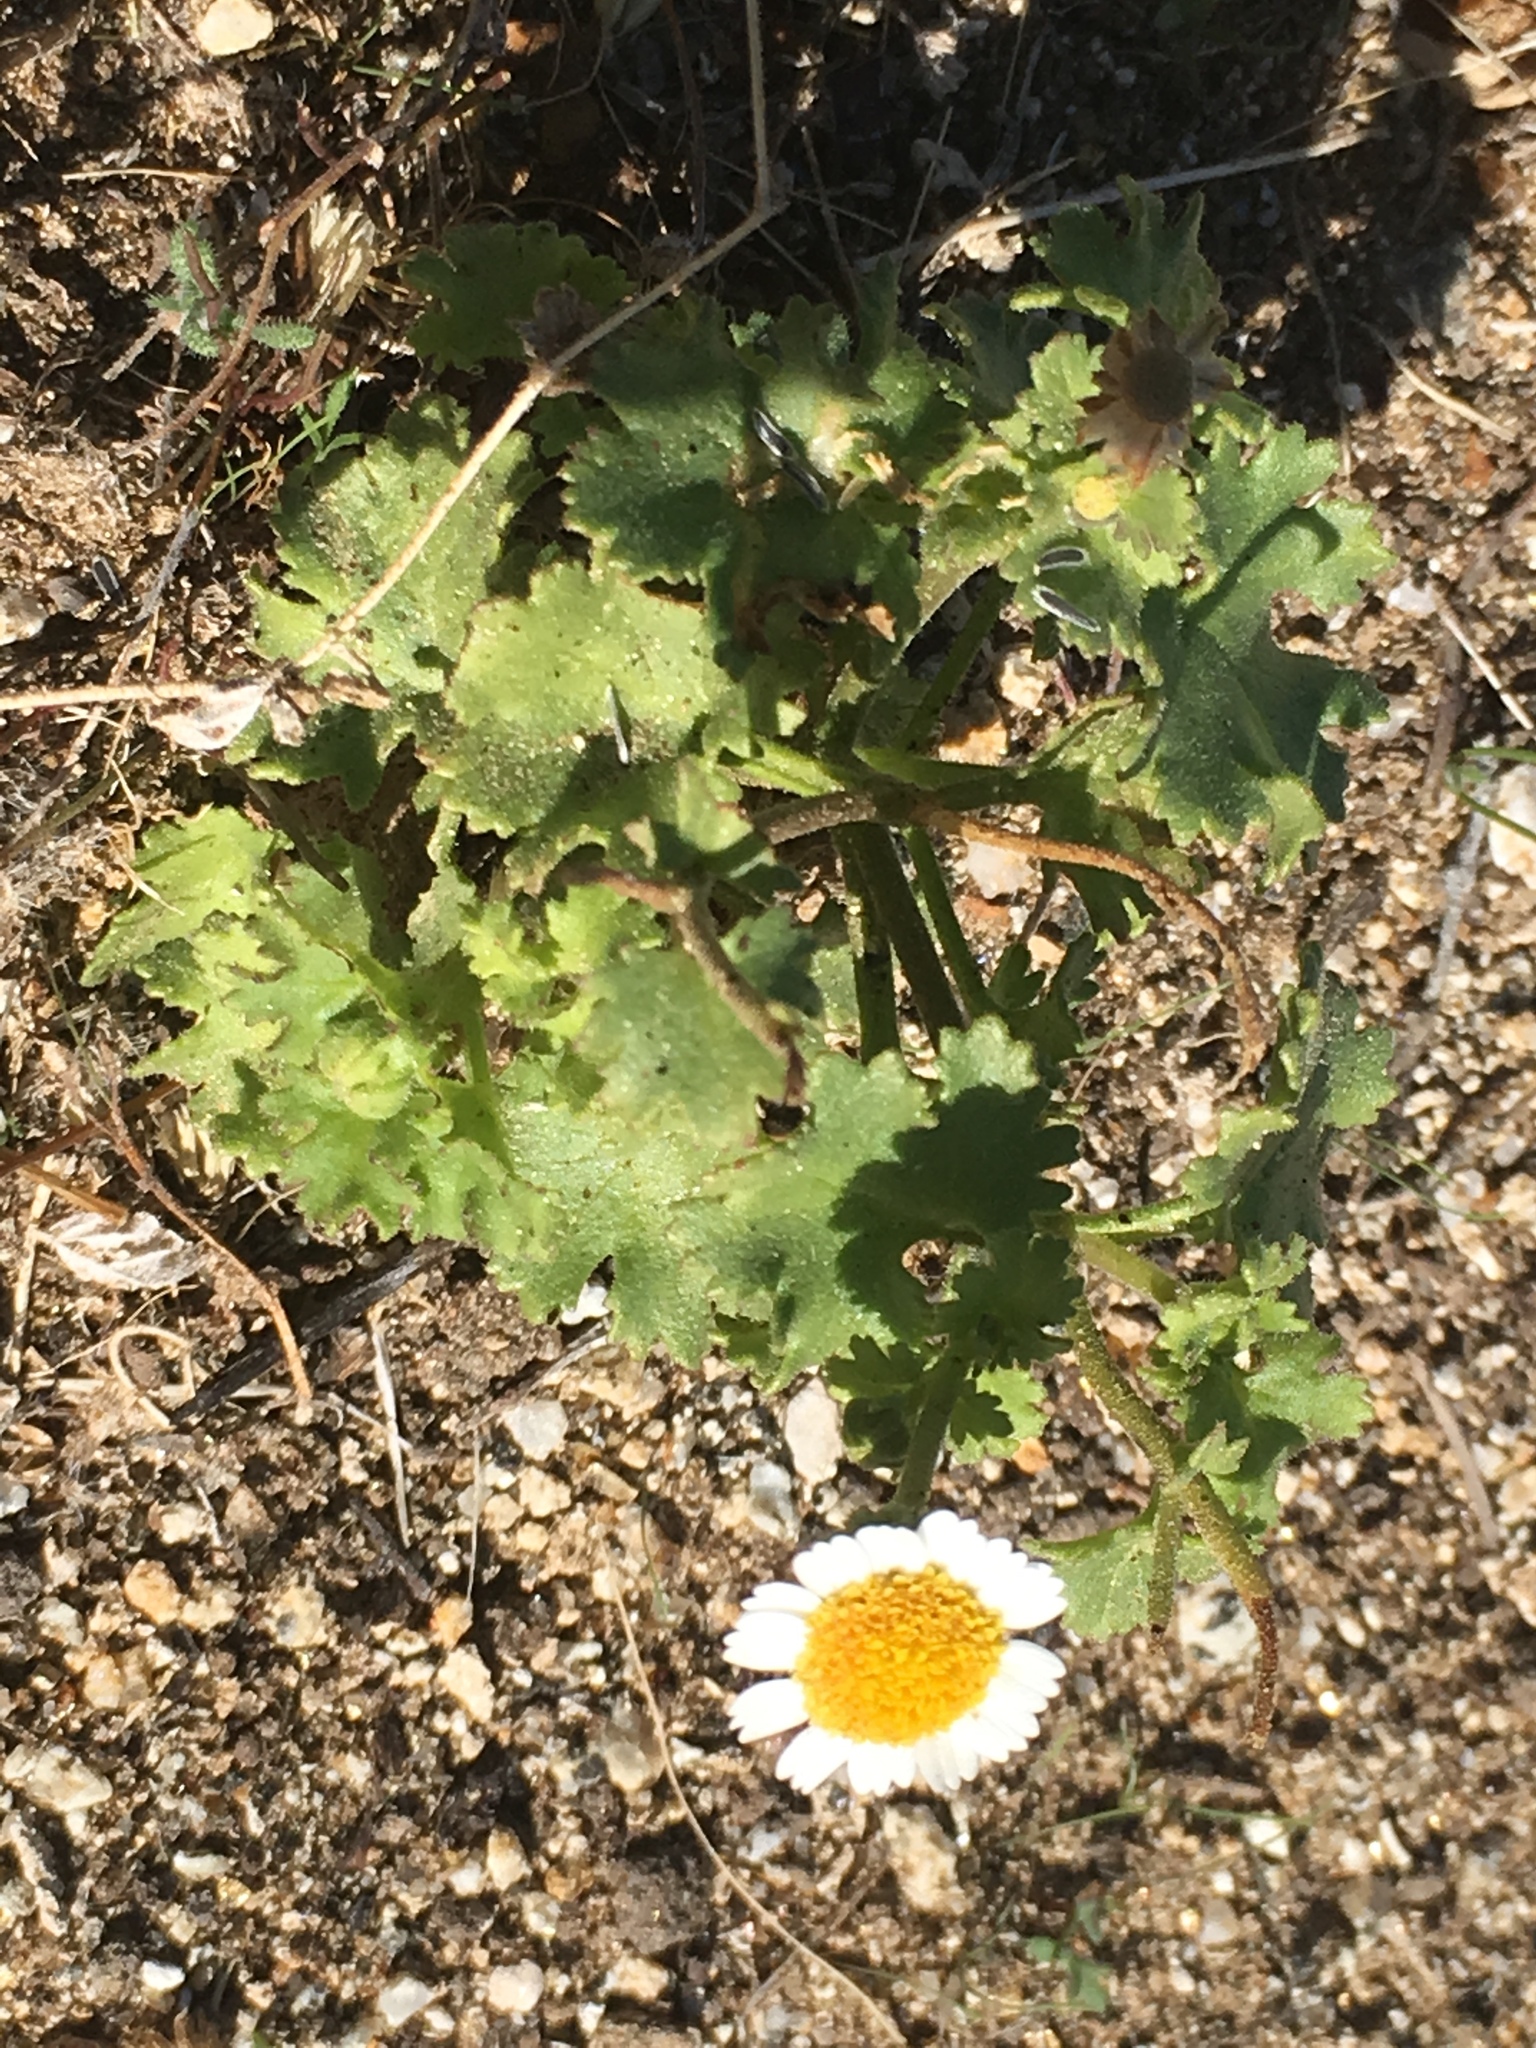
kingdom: Plantae
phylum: Tracheophyta
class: Magnoliopsida
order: Asterales
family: Asteraceae
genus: Laphamia
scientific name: Laphamia emoryi
